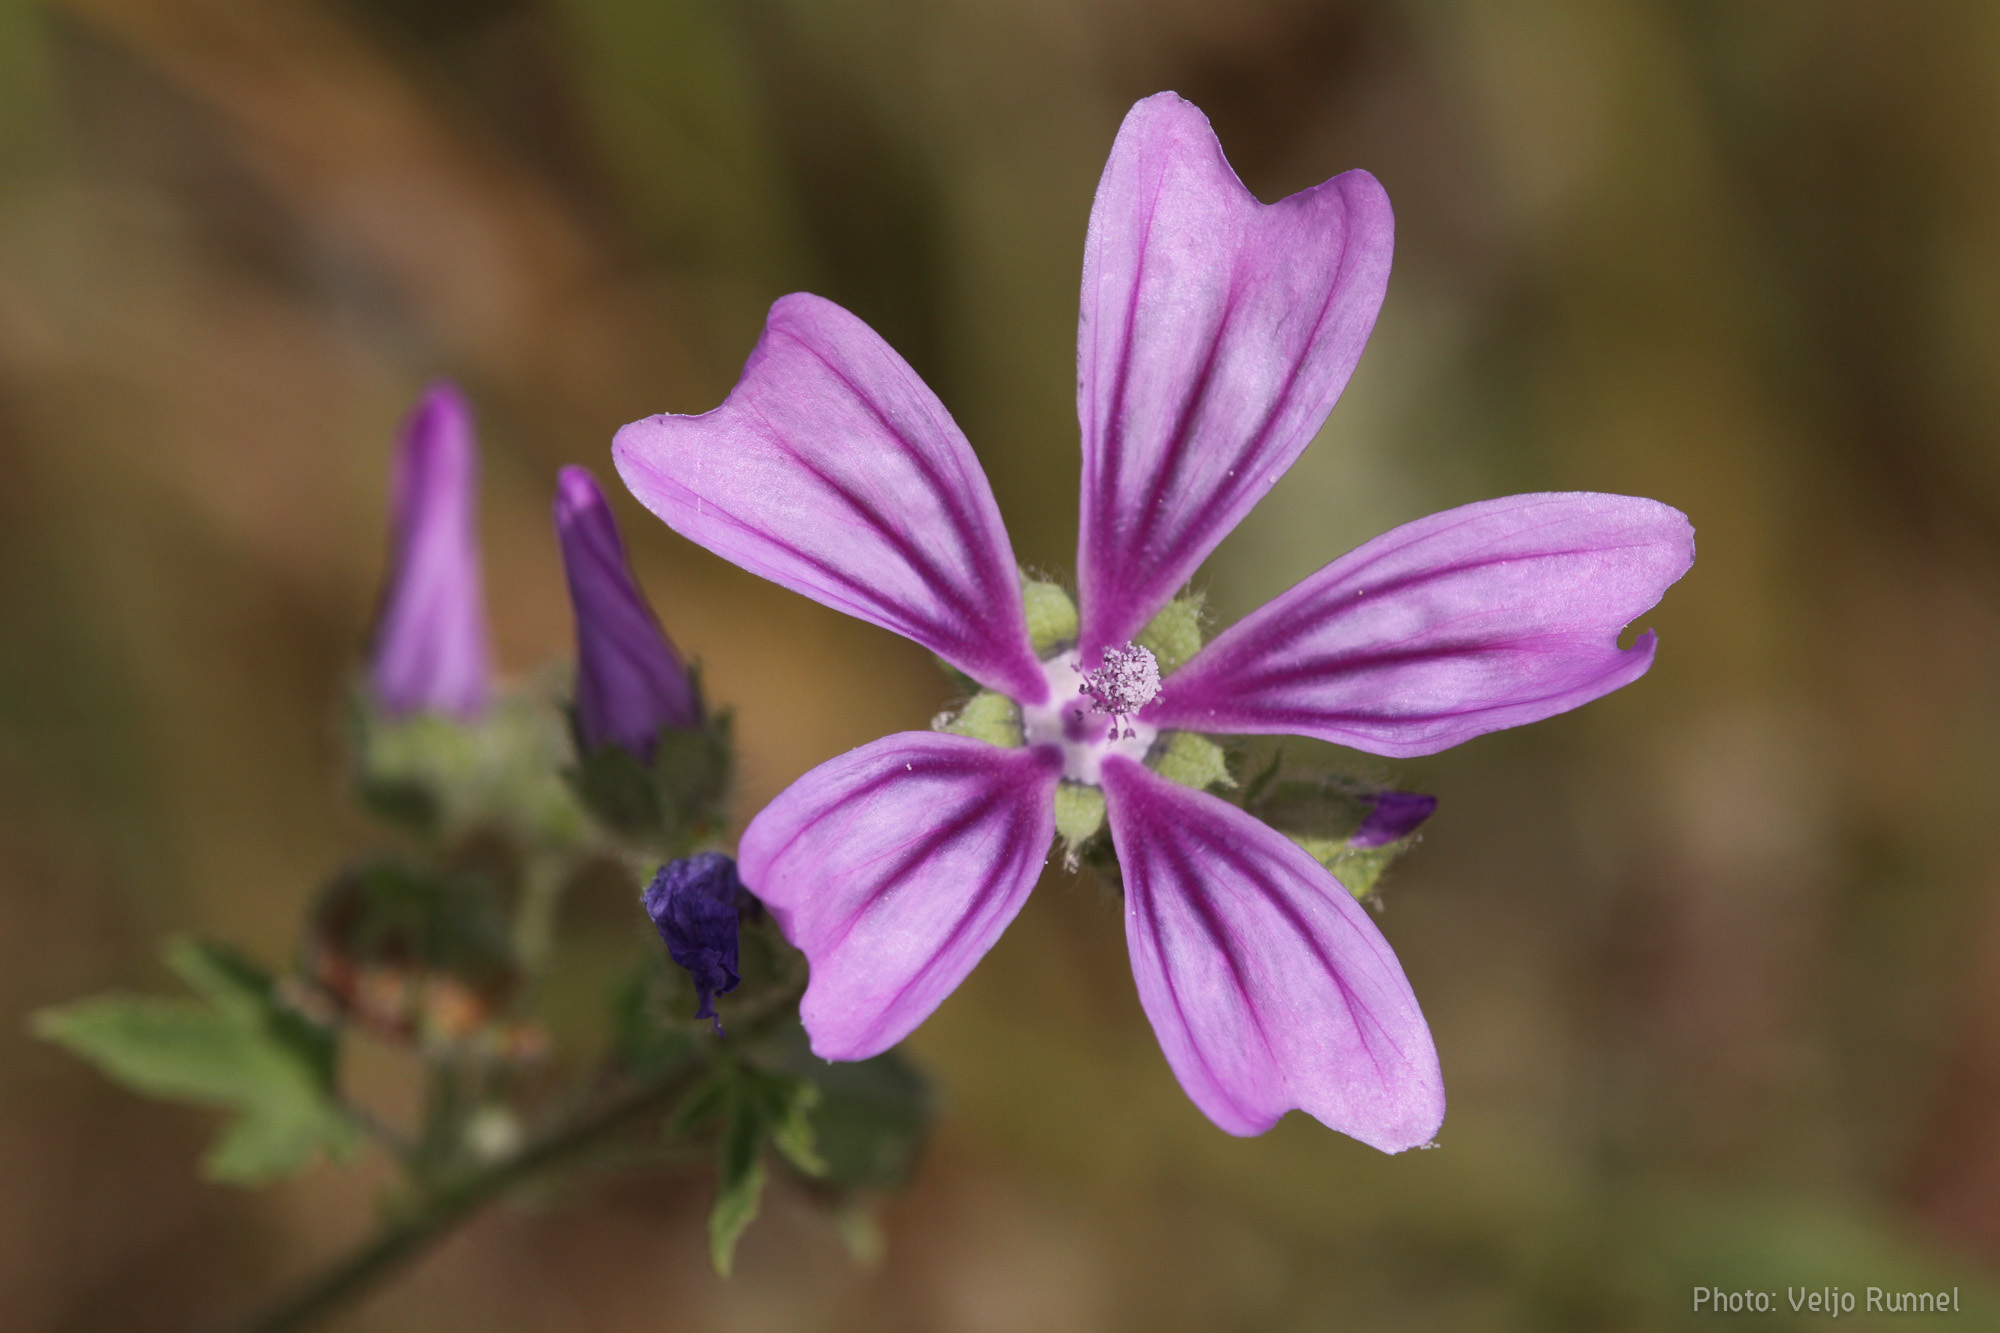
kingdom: Plantae
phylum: Tracheophyta
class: Magnoliopsida
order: Malvales
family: Malvaceae
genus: Malva
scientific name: Malva sylvestris
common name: Common mallow
